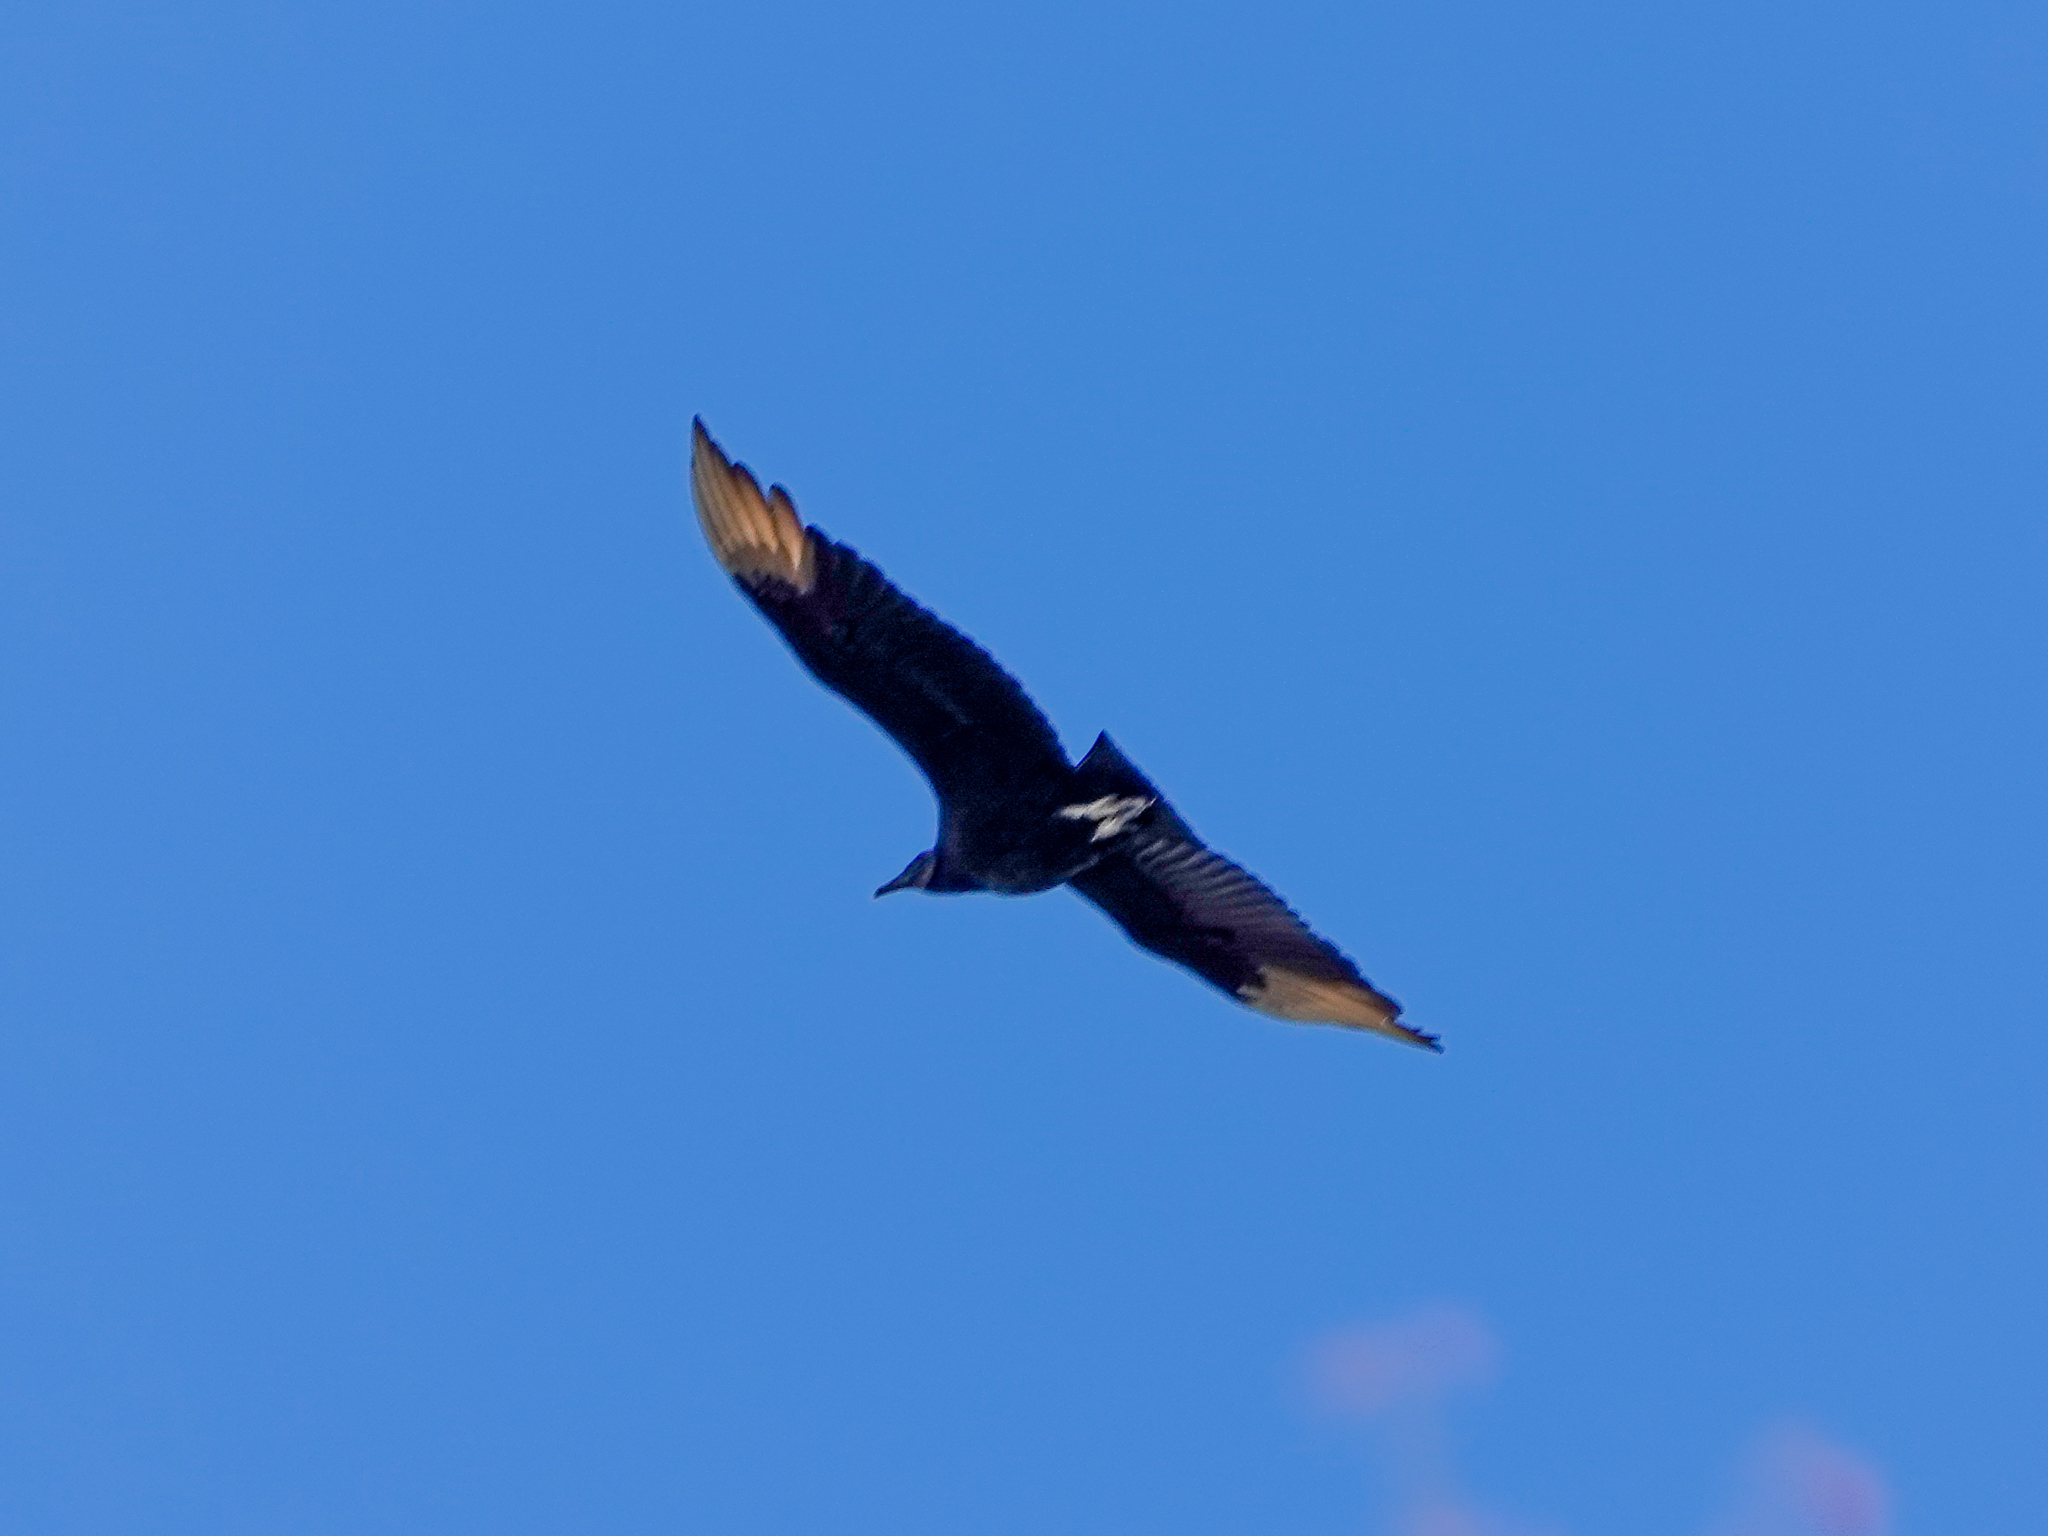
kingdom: Animalia
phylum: Chordata
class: Aves
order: Accipitriformes
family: Cathartidae
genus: Coragyps
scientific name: Coragyps atratus
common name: Black vulture
